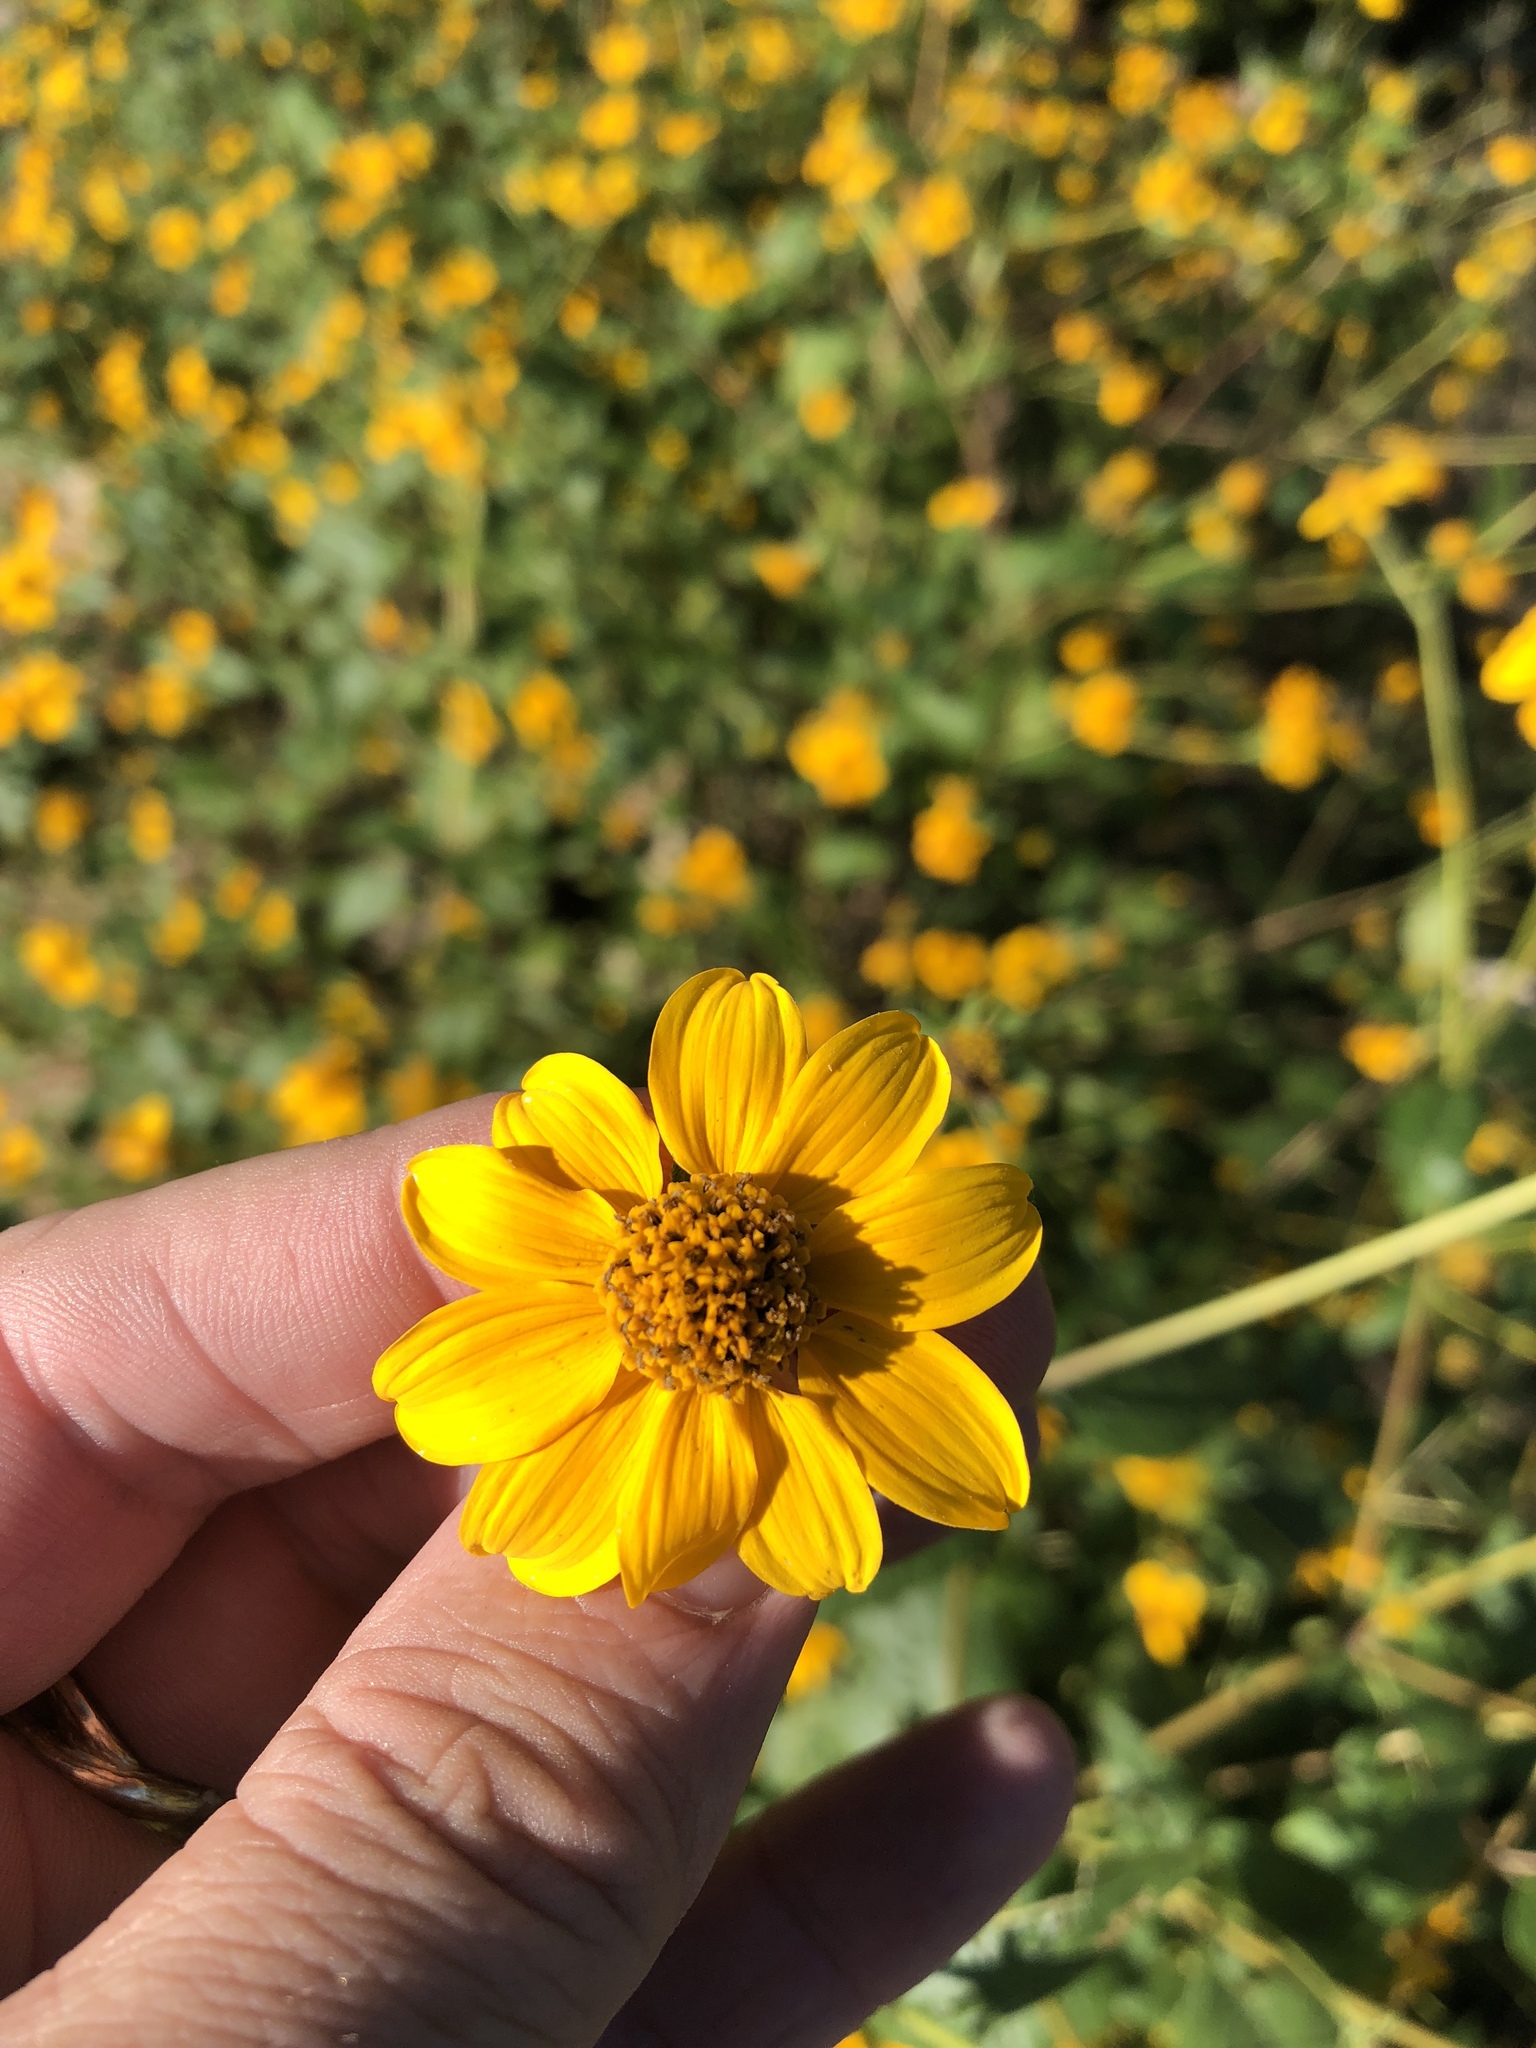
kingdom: Plantae
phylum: Tracheophyta
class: Magnoliopsida
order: Asterales
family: Asteraceae
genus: Viguiera
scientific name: Viguiera dentata
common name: Toothleaf
